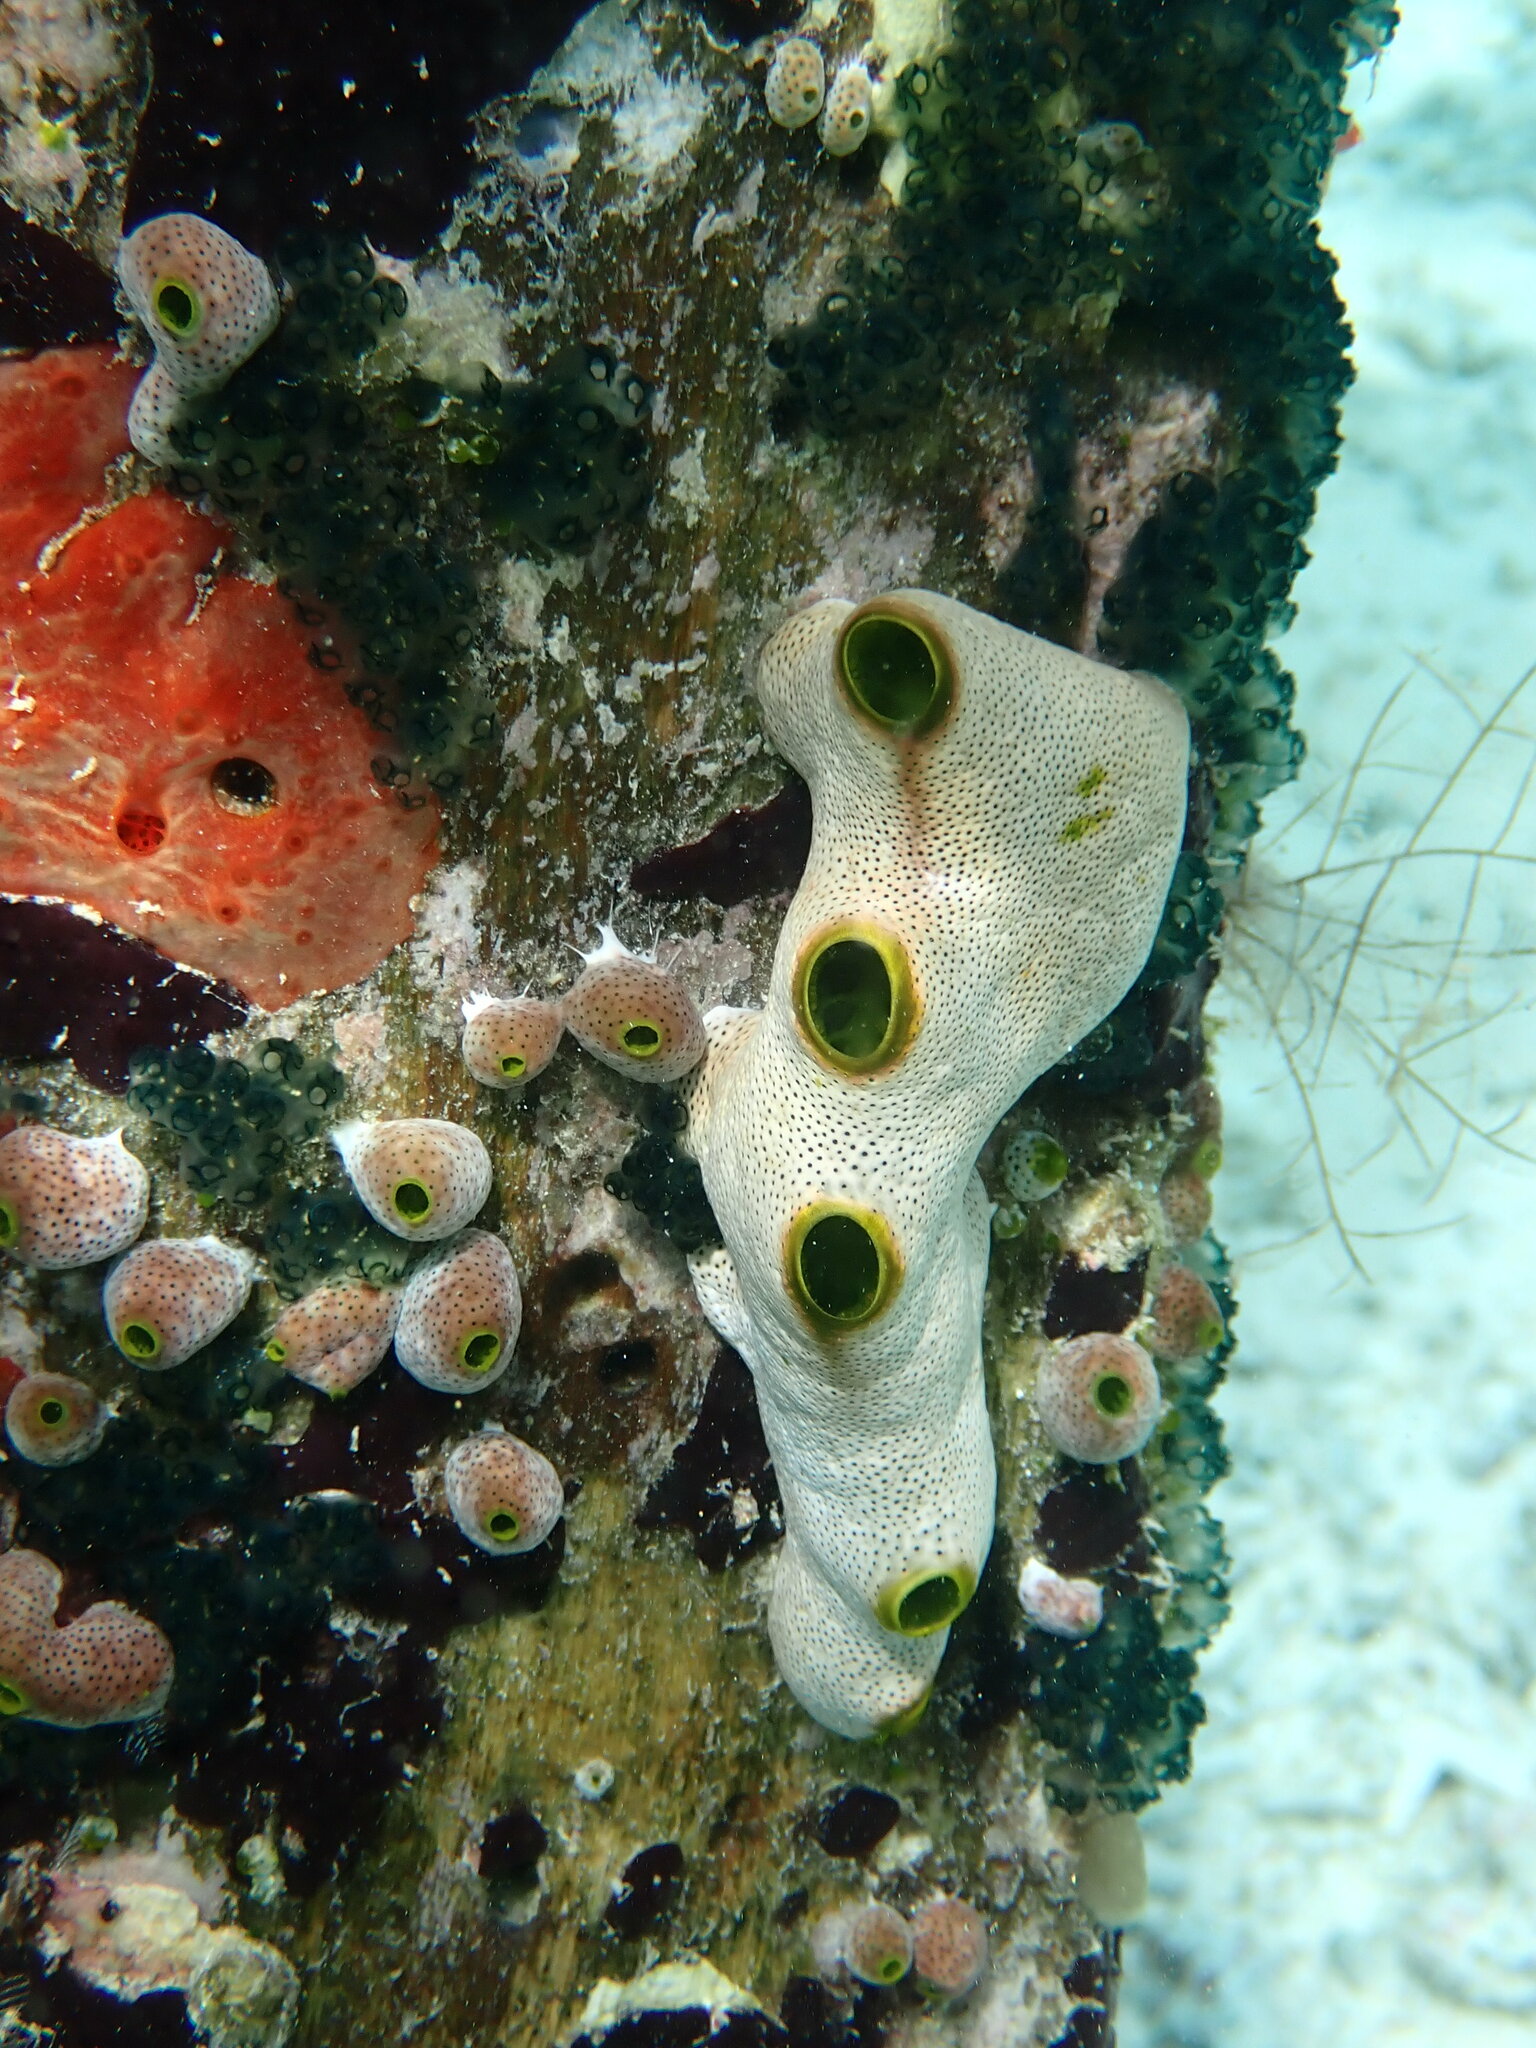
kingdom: Animalia
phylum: Chordata
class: Ascidiacea
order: Aplousobranchia
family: Didemnidae
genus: Didemnum
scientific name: Didemnum molle
